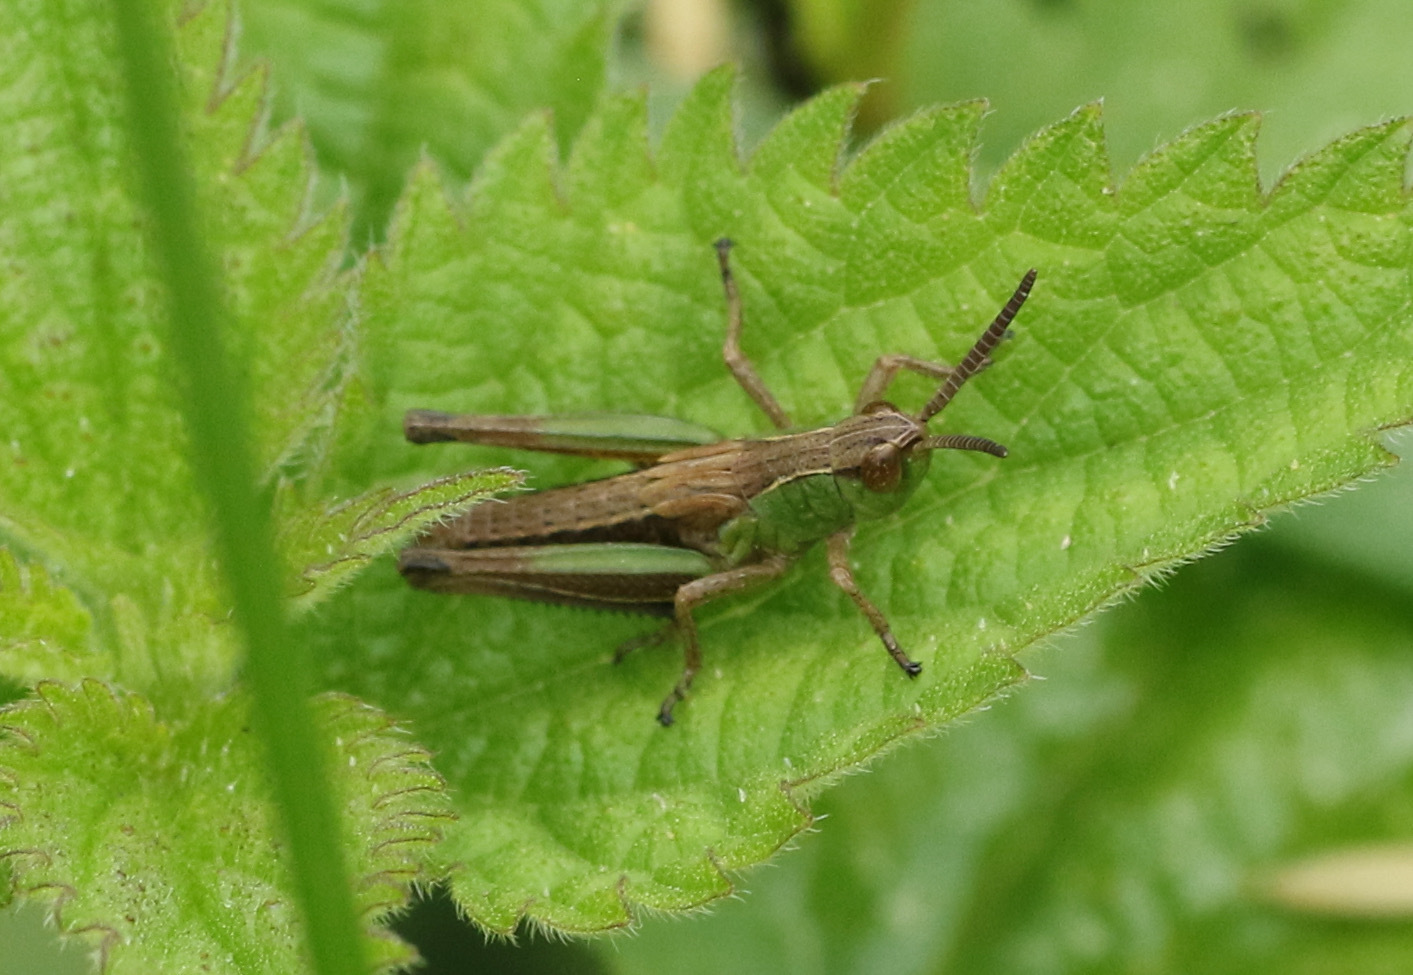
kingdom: Animalia
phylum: Arthropoda
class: Insecta
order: Orthoptera
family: Acrididae
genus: Pseudochorthippus
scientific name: Pseudochorthippus parallelus
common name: Meadow grasshopper
